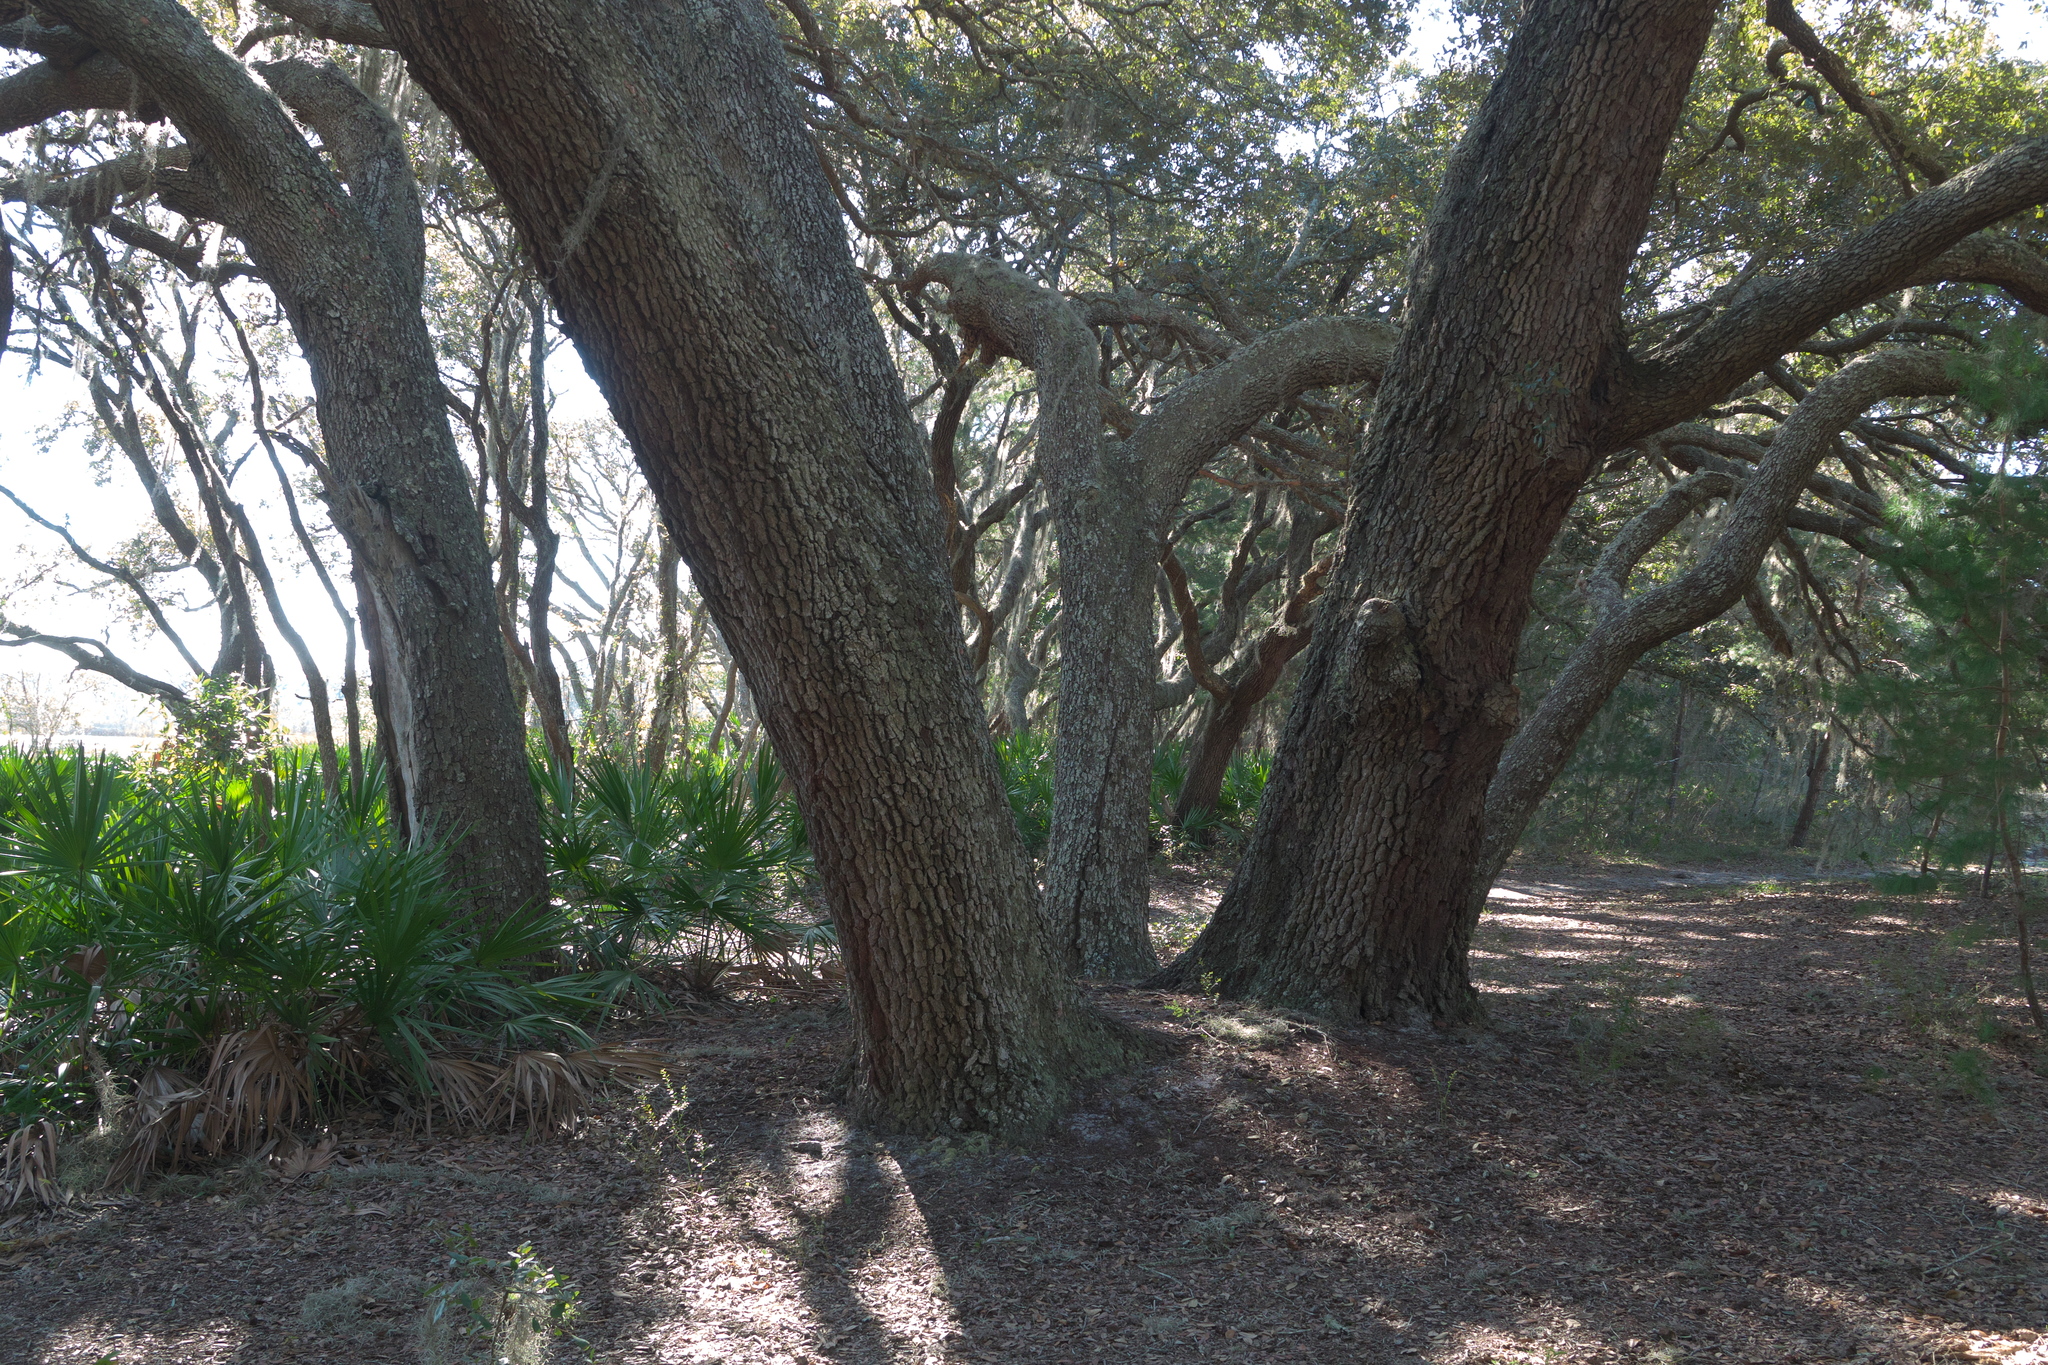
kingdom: Plantae
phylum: Tracheophyta
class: Magnoliopsida
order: Fagales
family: Fagaceae
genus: Quercus
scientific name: Quercus geminata
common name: Sand live oak
